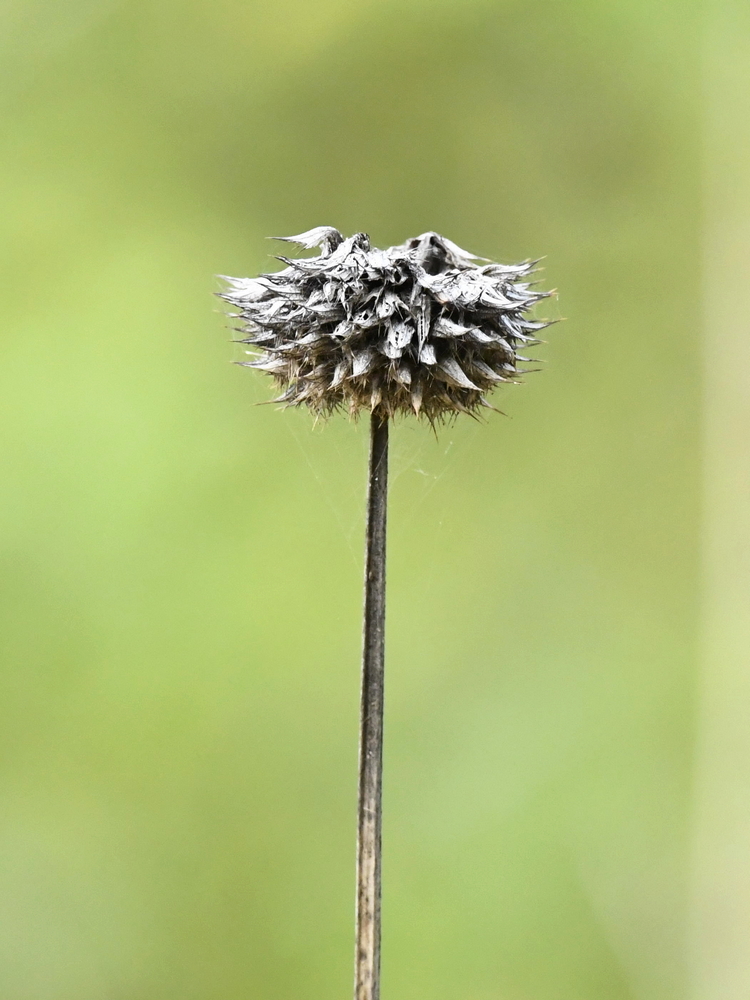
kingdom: Plantae
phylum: Tracheophyta
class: Magnoliopsida
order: Lamiales
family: Lamiaceae
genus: Leonotis
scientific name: Leonotis nepetifolia
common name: Christmas candlestick
